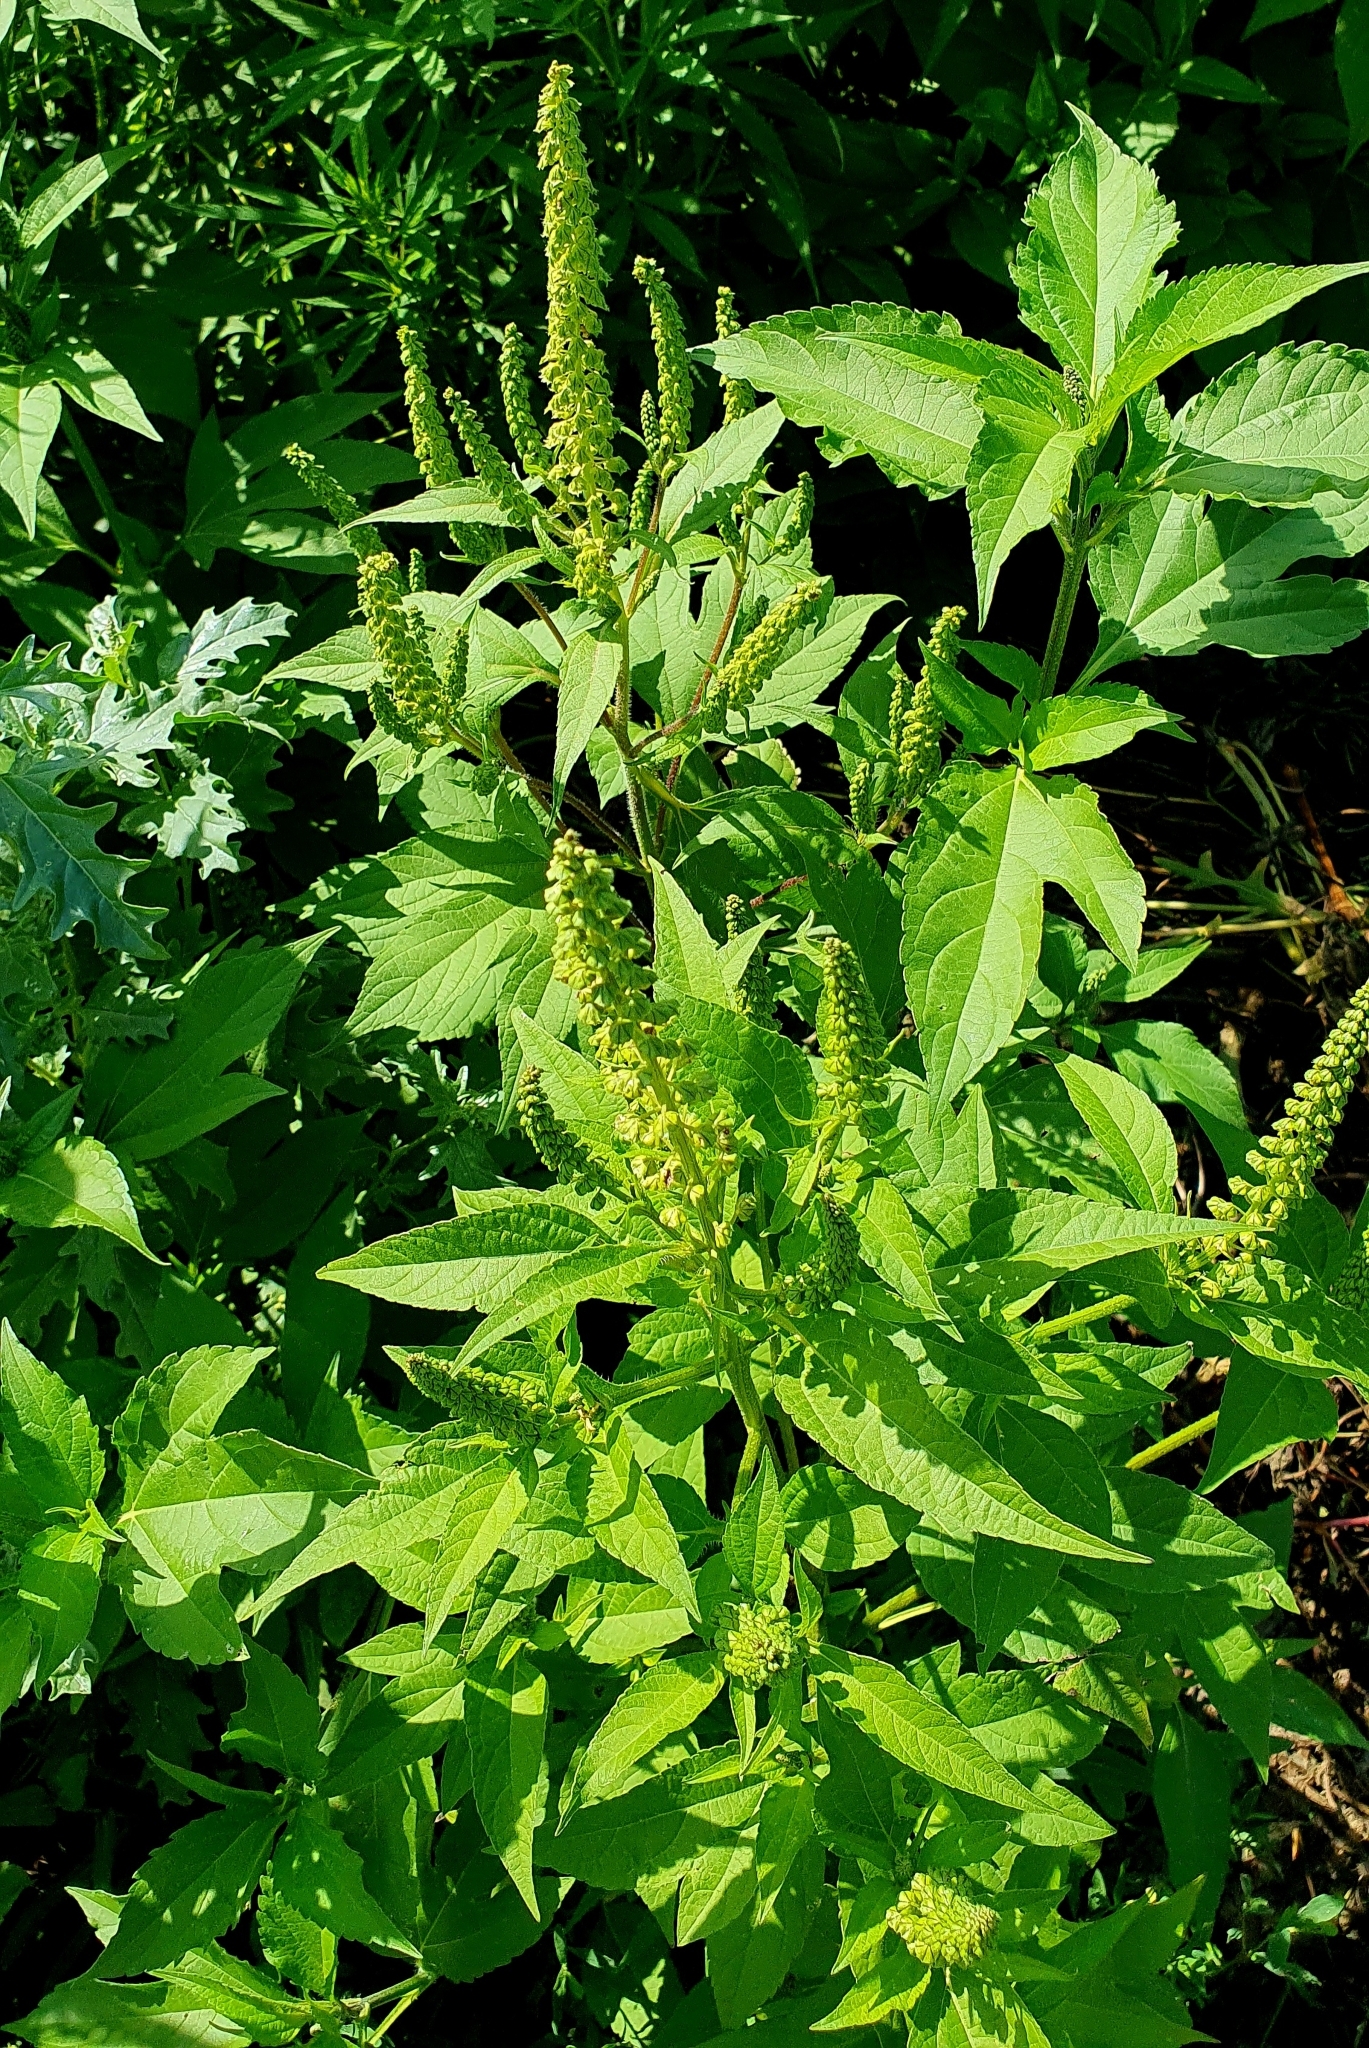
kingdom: Plantae
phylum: Tracheophyta
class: Magnoliopsida
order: Asterales
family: Asteraceae
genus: Ambrosia
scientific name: Ambrosia trifida
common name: Giant ragweed
